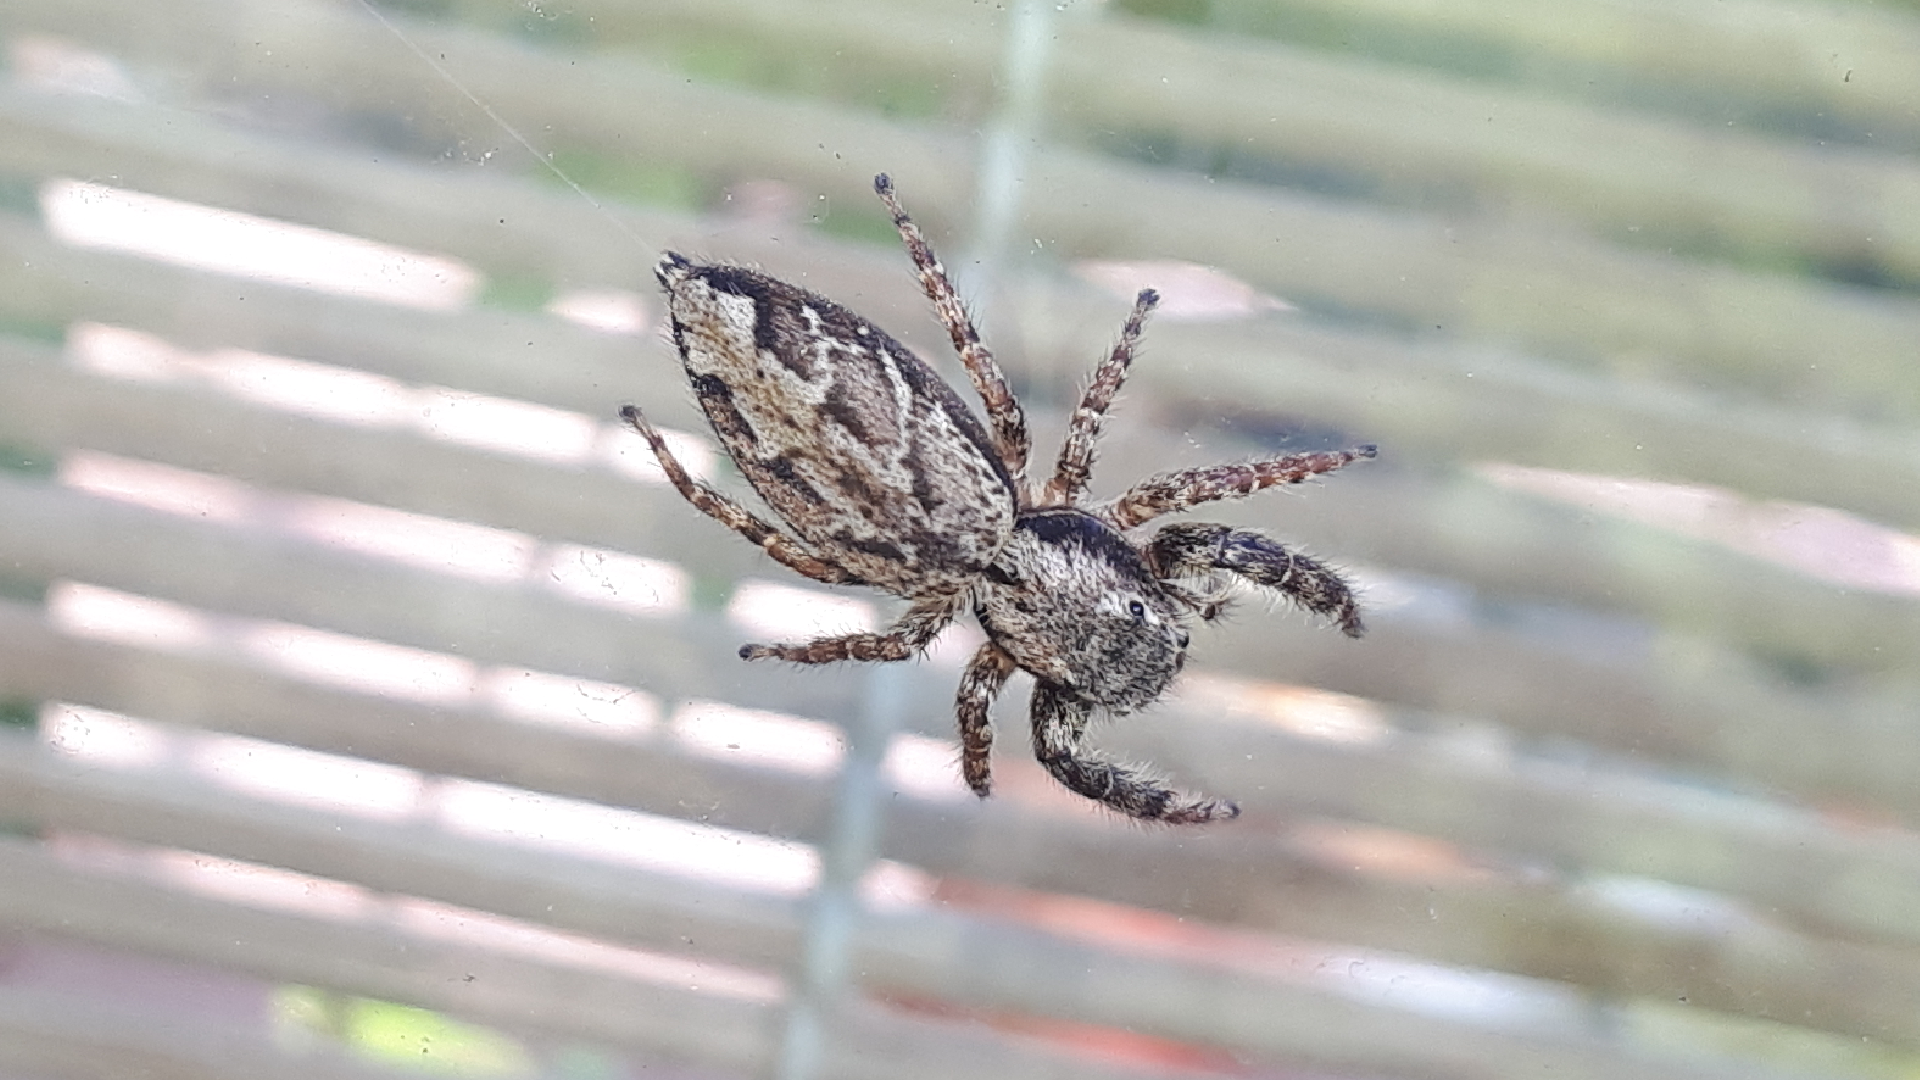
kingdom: Animalia
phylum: Arthropoda
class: Arachnida
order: Araneae
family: Salticidae
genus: Marpissa
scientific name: Marpissa muscosa
